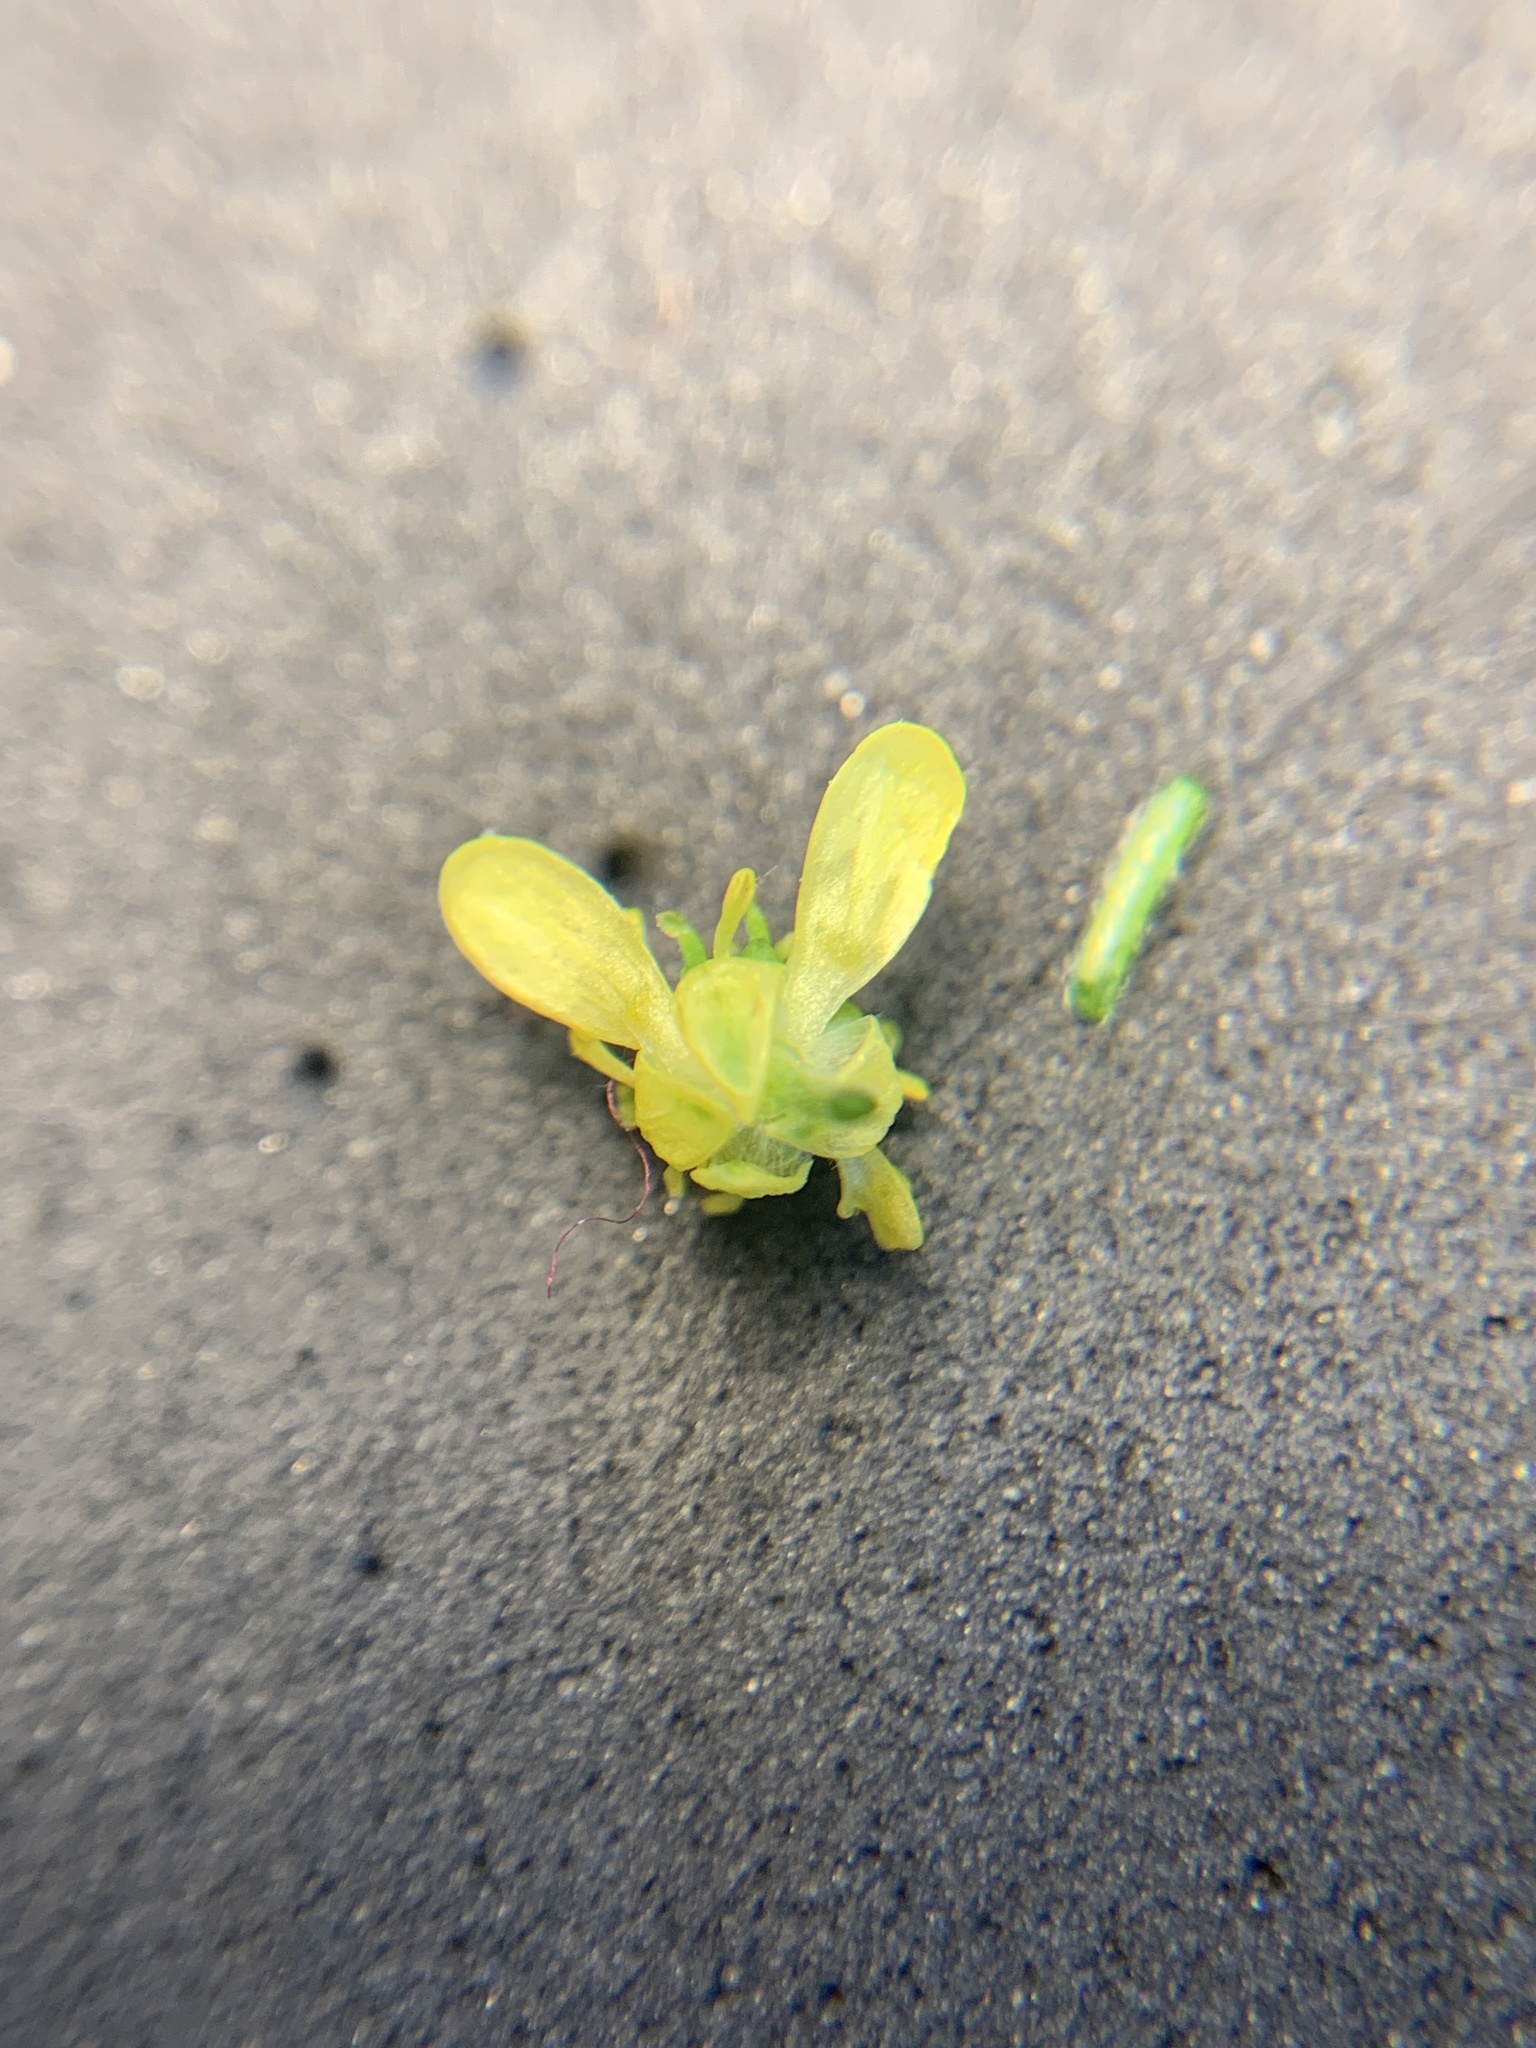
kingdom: Plantae
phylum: Tracheophyta
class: Magnoliopsida
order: Ranunculales
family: Ranunculaceae
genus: Ranunculus
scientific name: Ranunculus uncinatus
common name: Little buttercup
